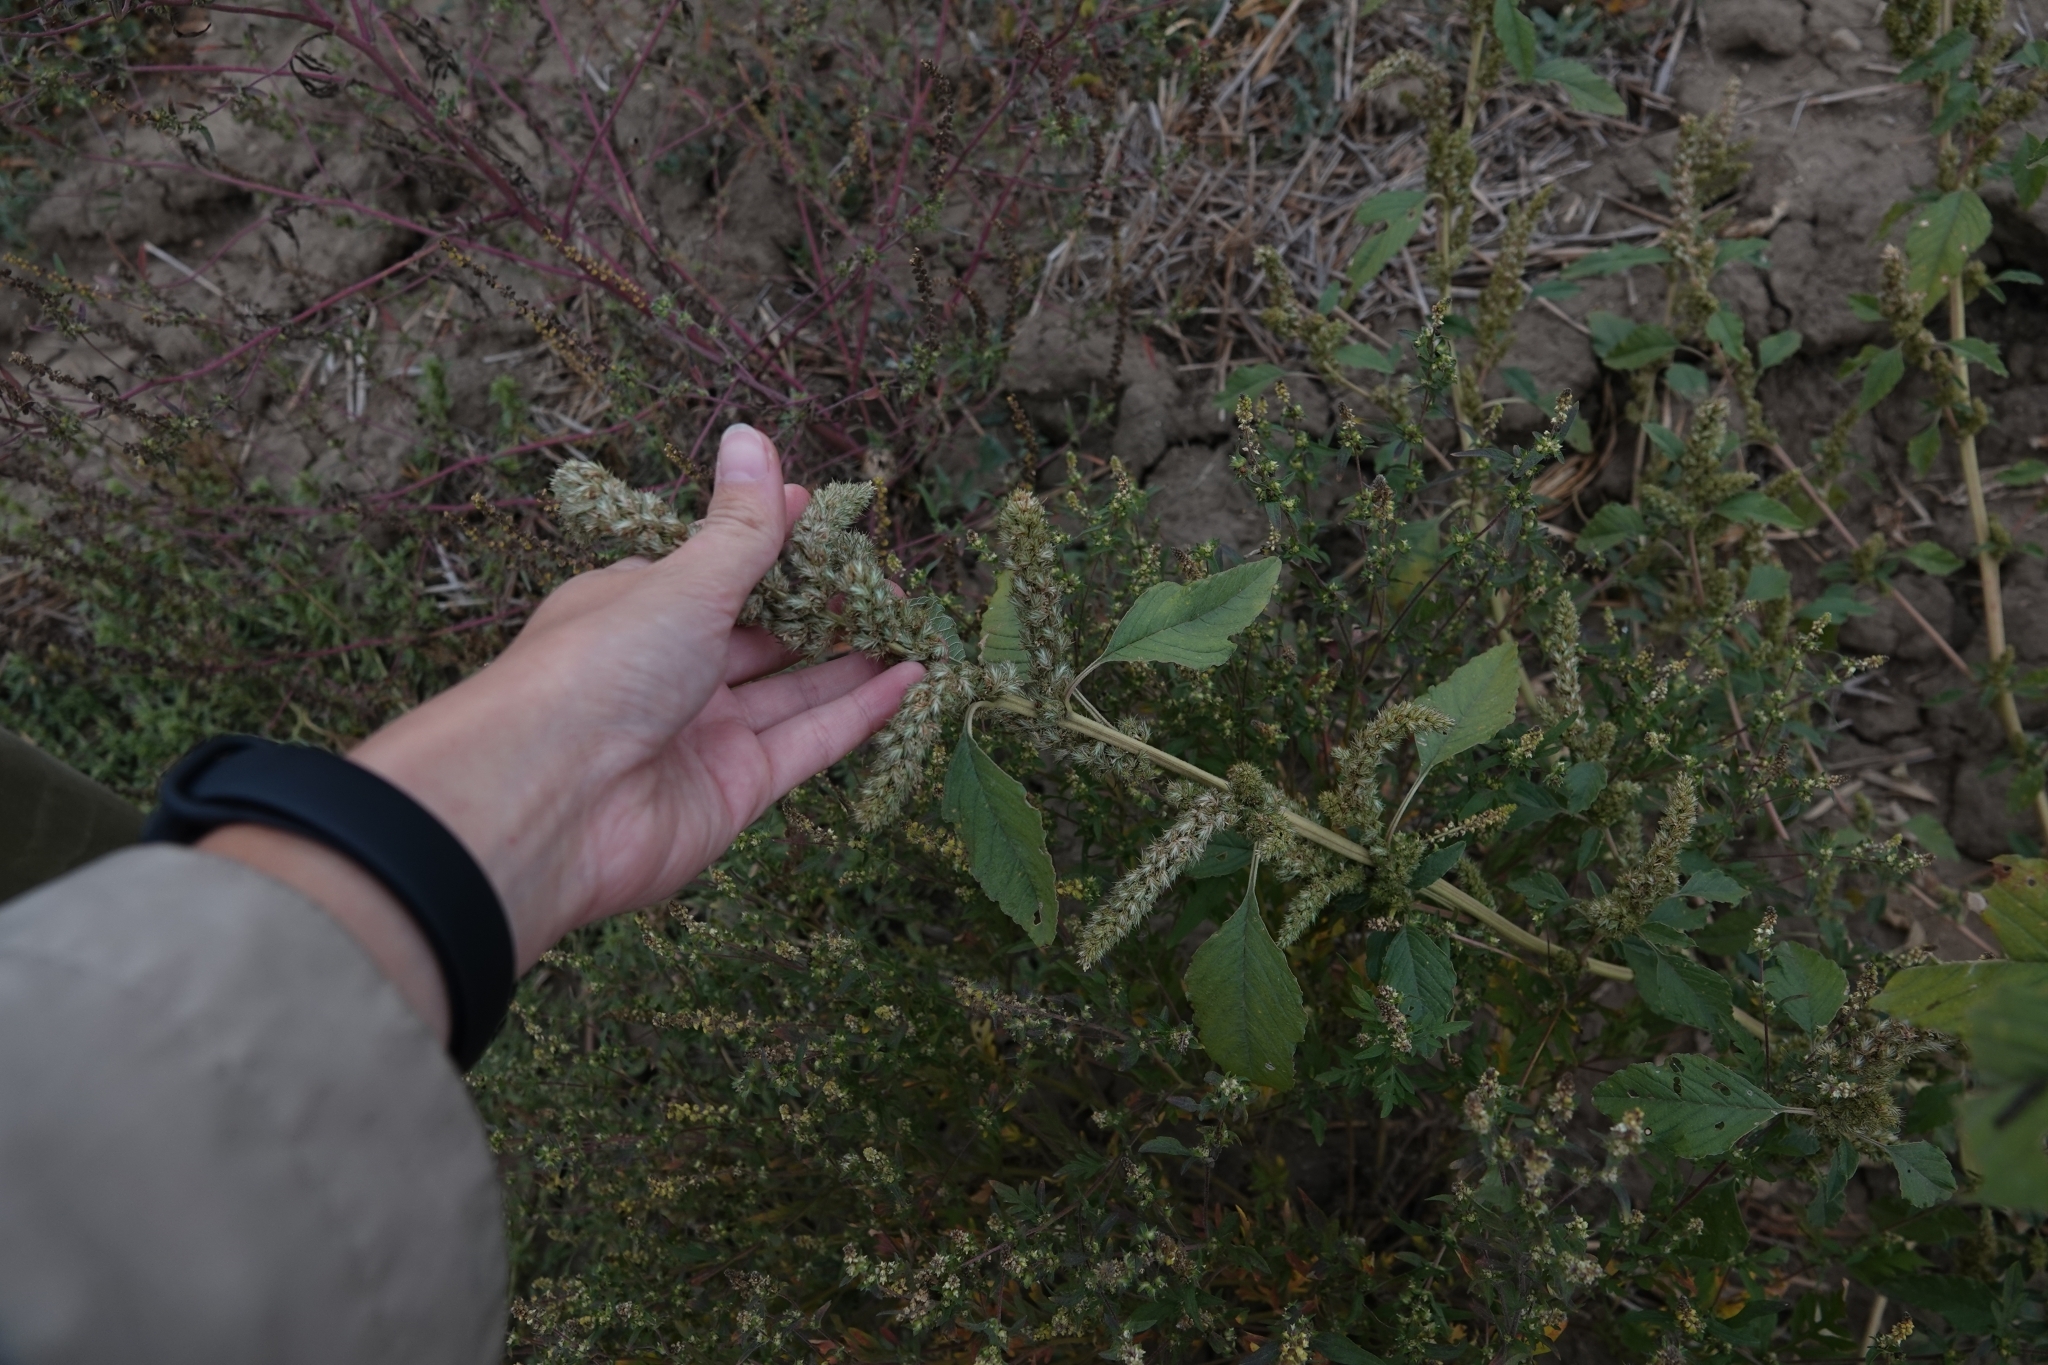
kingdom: Plantae
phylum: Tracheophyta
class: Magnoliopsida
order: Caryophyllales
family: Amaranthaceae
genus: Amaranthus
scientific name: Amaranthus retroflexus
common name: Redroot amaranth
